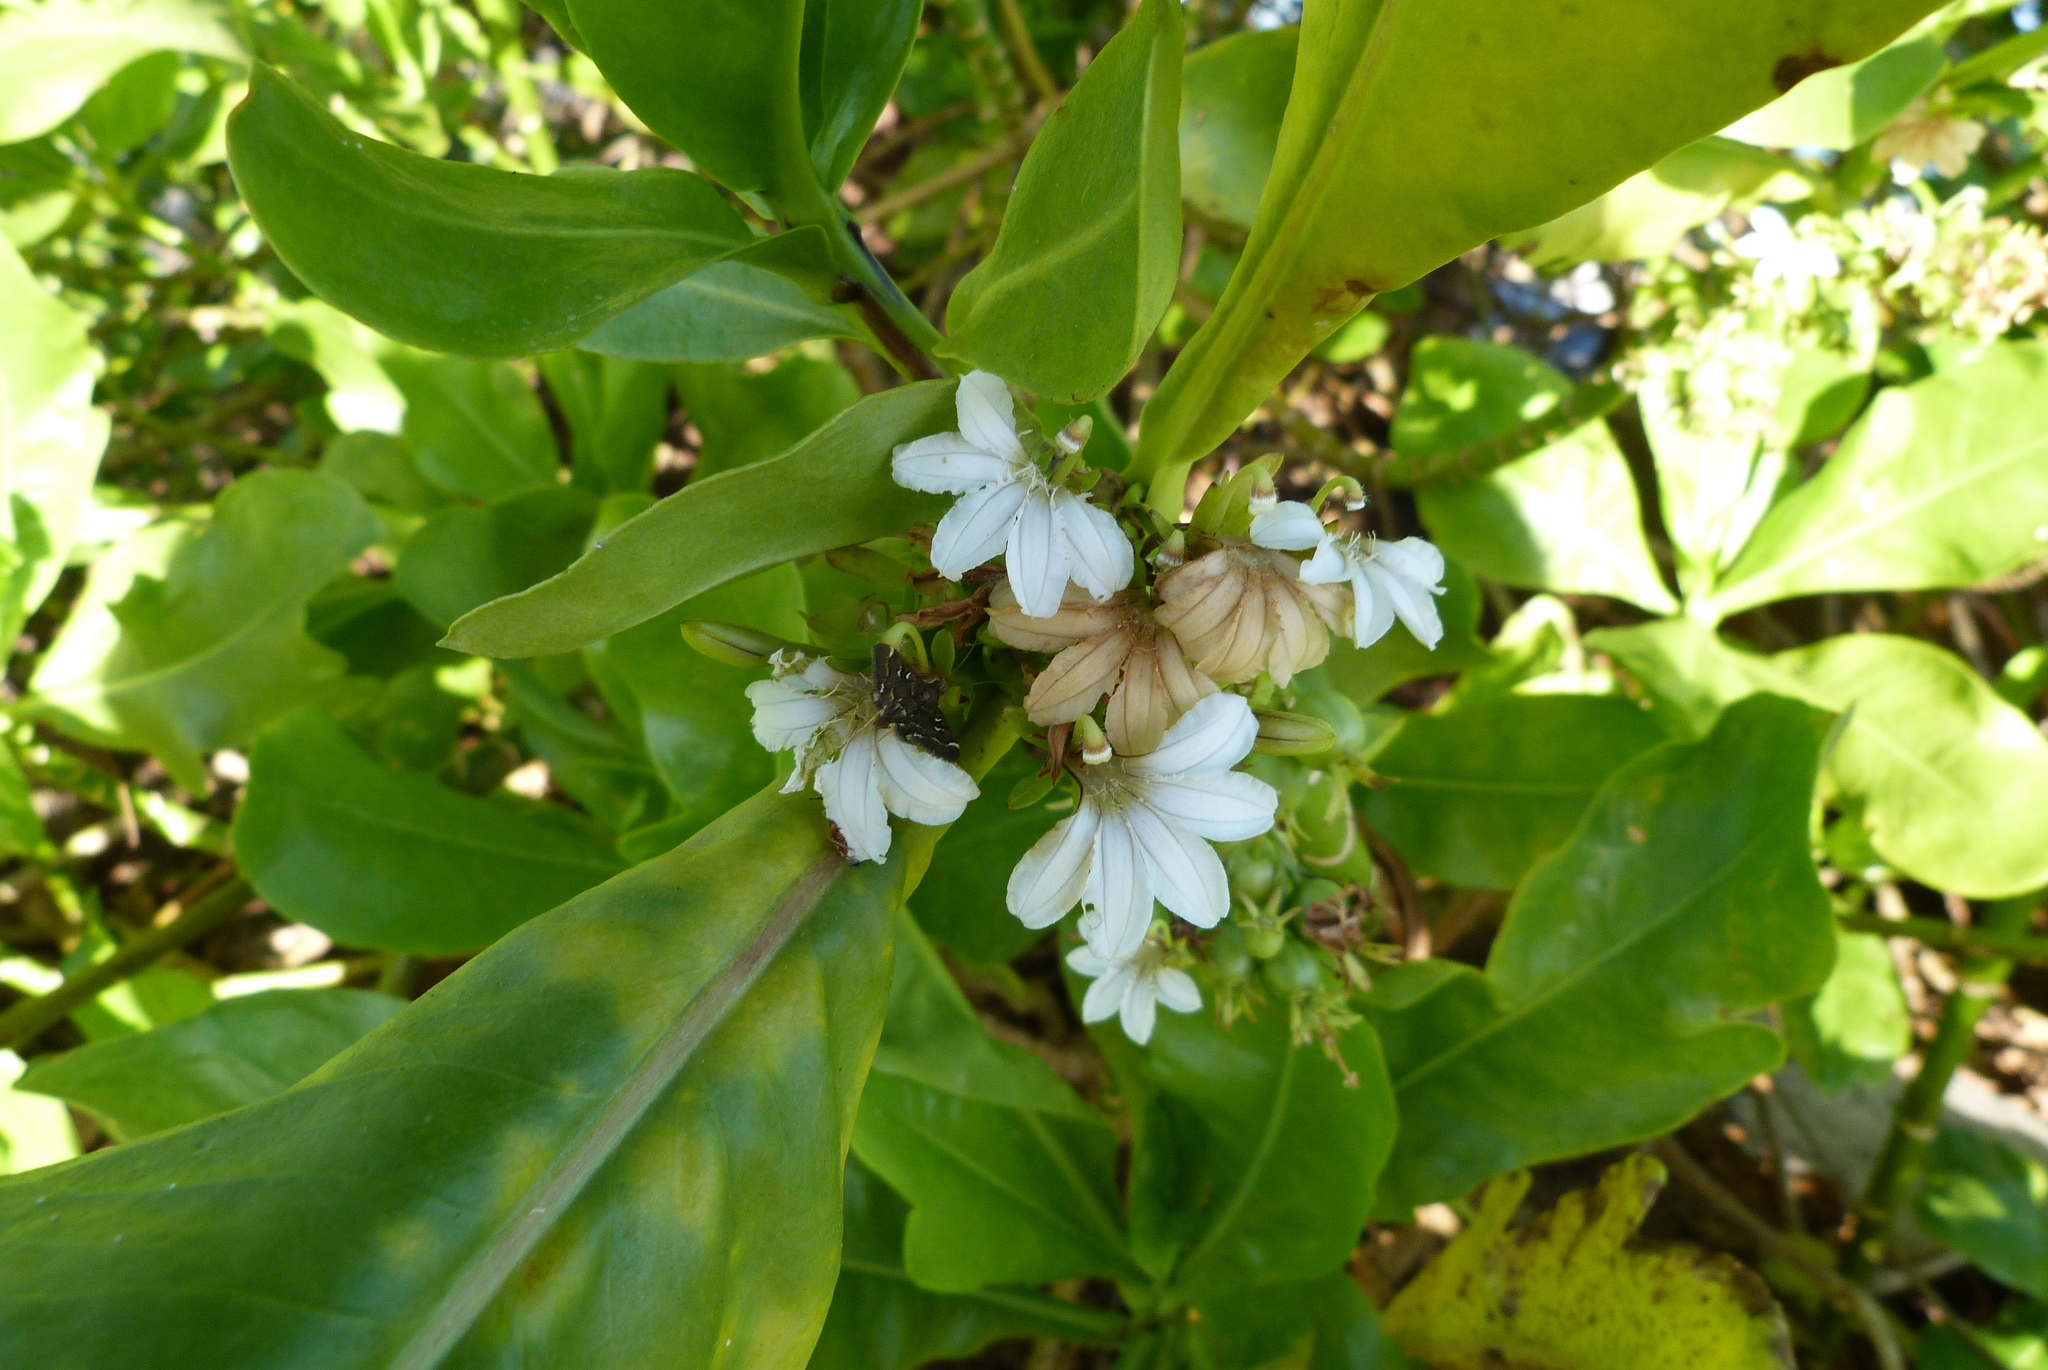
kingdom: Plantae
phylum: Tracheophyta
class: Magnoliopsida
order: Asterales
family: Goodeniaceae
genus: Scaevola
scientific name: Scaevola taccada
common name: Sea lettucetree
